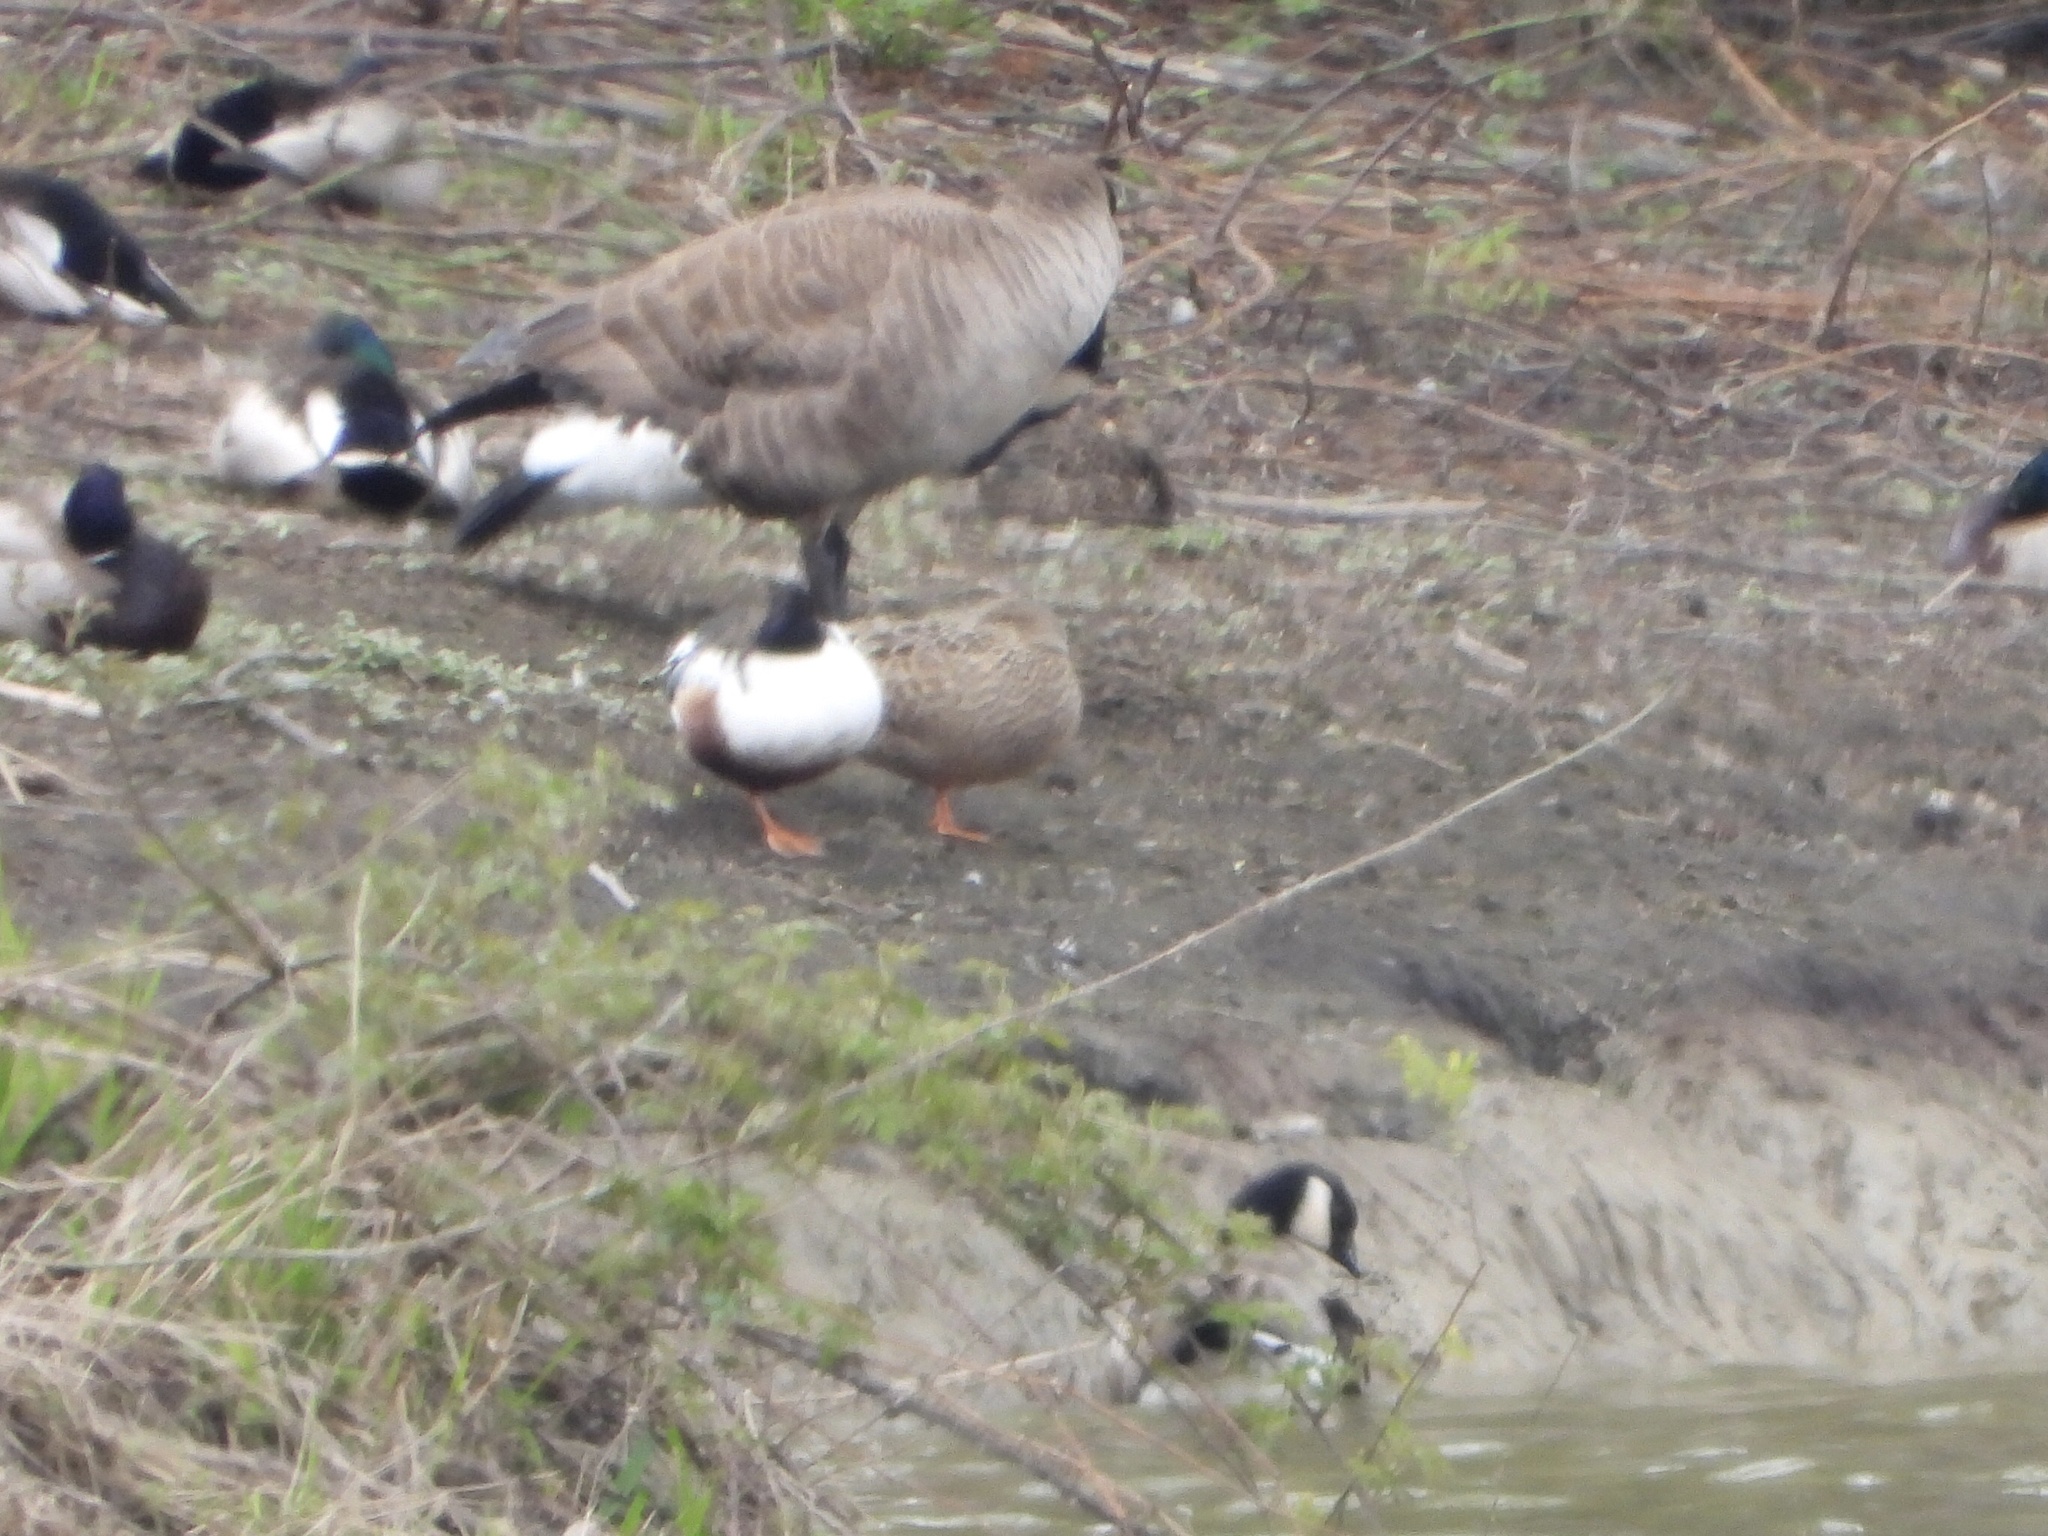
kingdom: Animalia
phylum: Chordata
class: Aves
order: Anseriformes
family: Anatidae
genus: Branta
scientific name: Branta hutchinsii
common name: Cackling goose
